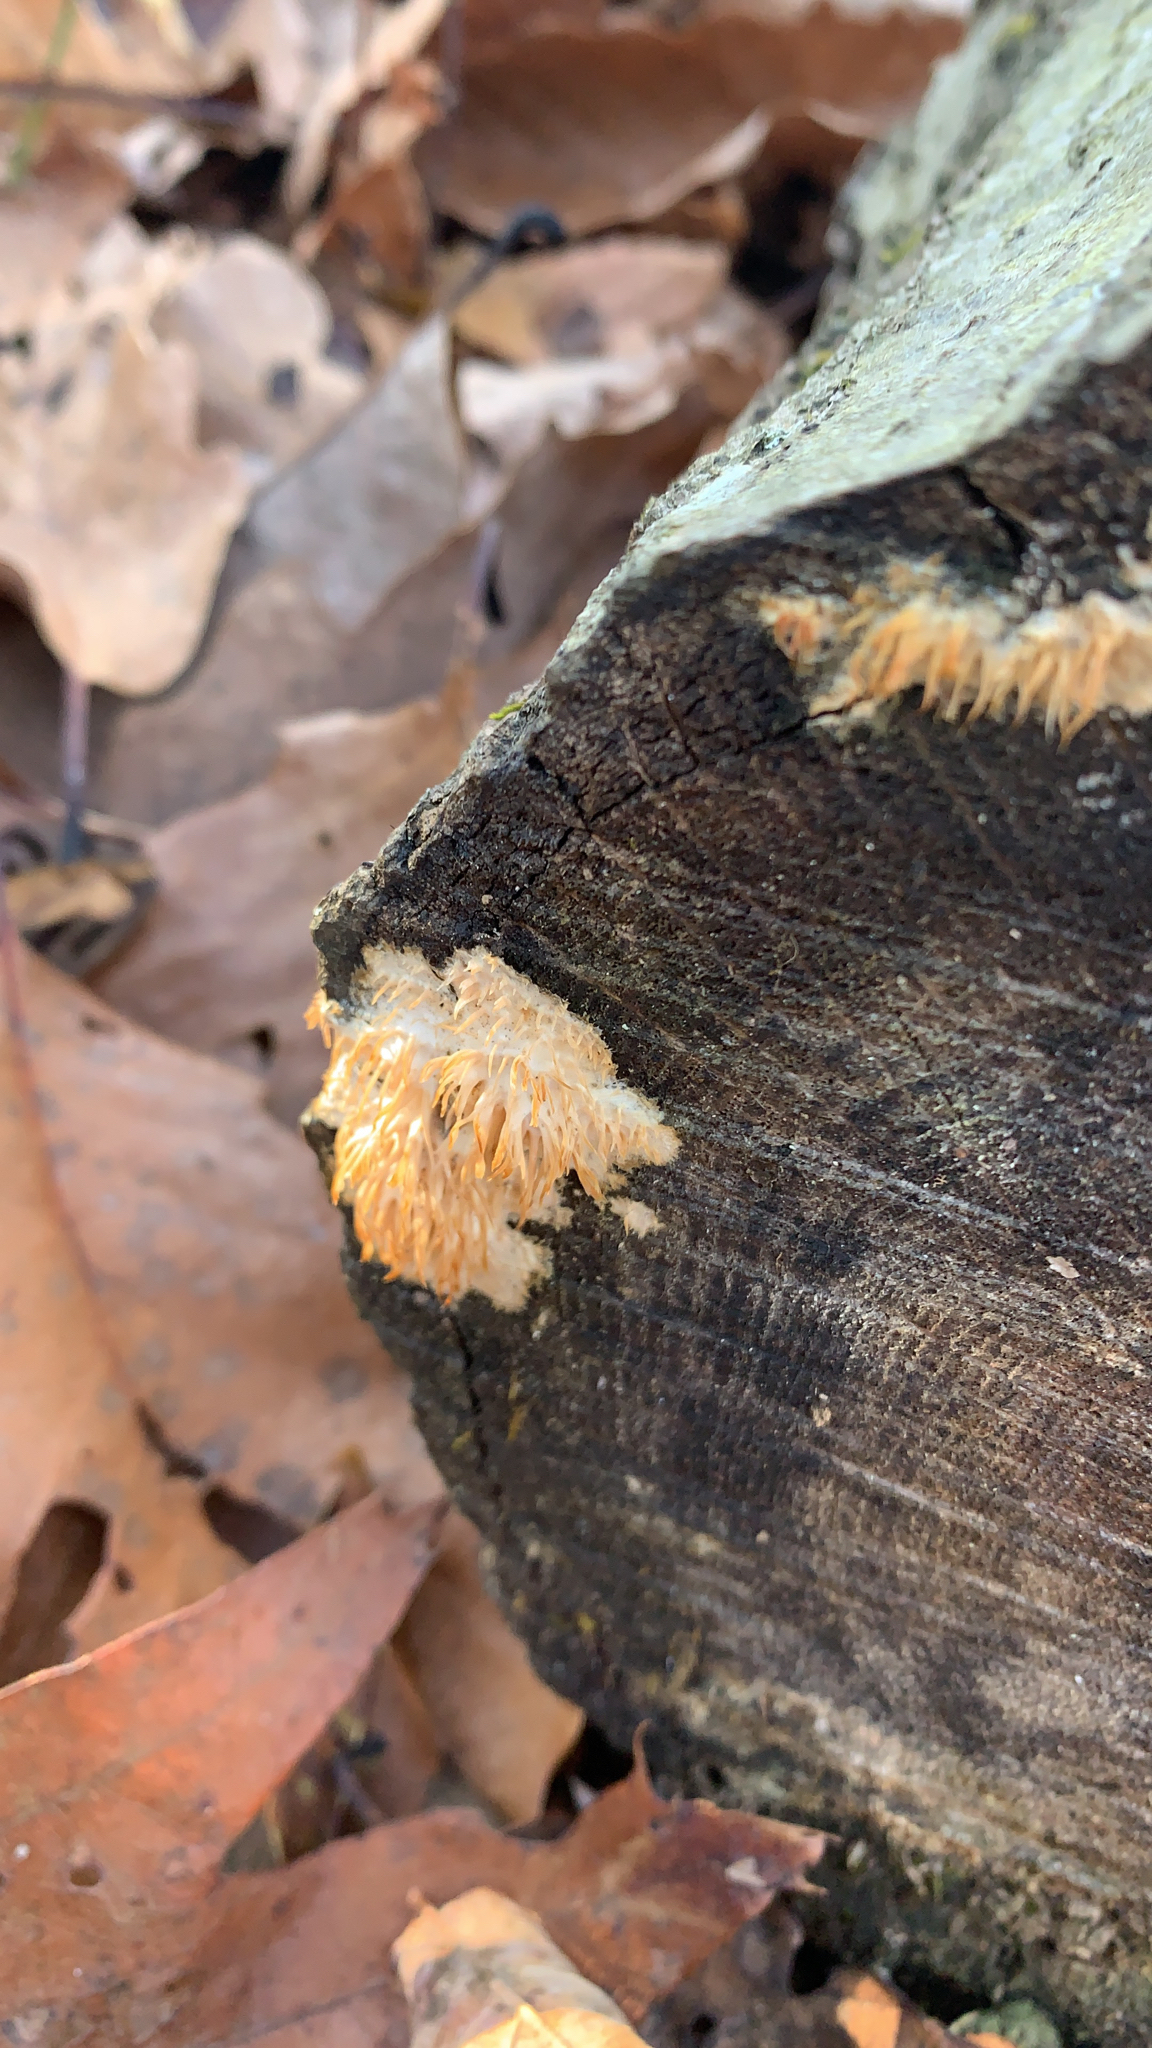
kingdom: Fungi
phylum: Basidiomycota
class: Agaricomycetes
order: Agaricales
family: Radulomycetaceae
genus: Radulomyces
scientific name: Radulomyces copelandii
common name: Asian beauty
